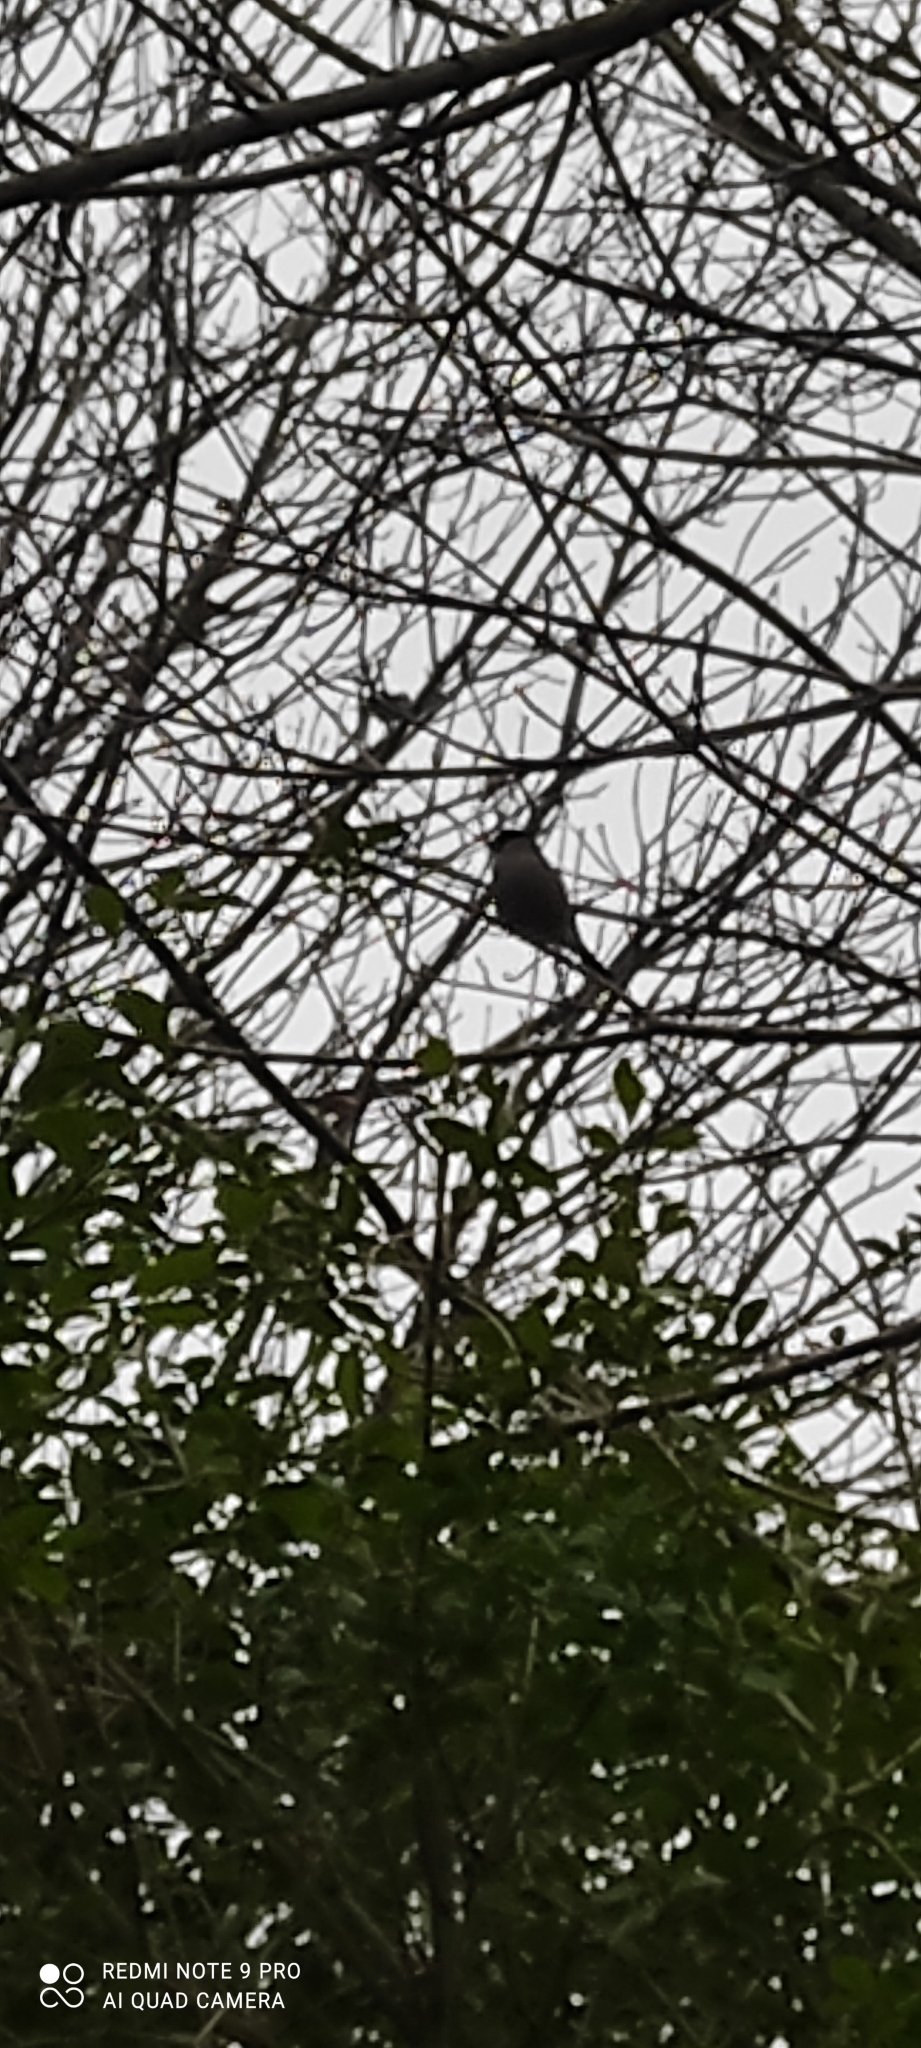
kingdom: Animalia
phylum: Chordata
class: Aves
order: Passeriformes
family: Fringillidae
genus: Pyrrhula
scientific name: Pyrrhula pyrrhula
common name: Eurasian bullfinch
